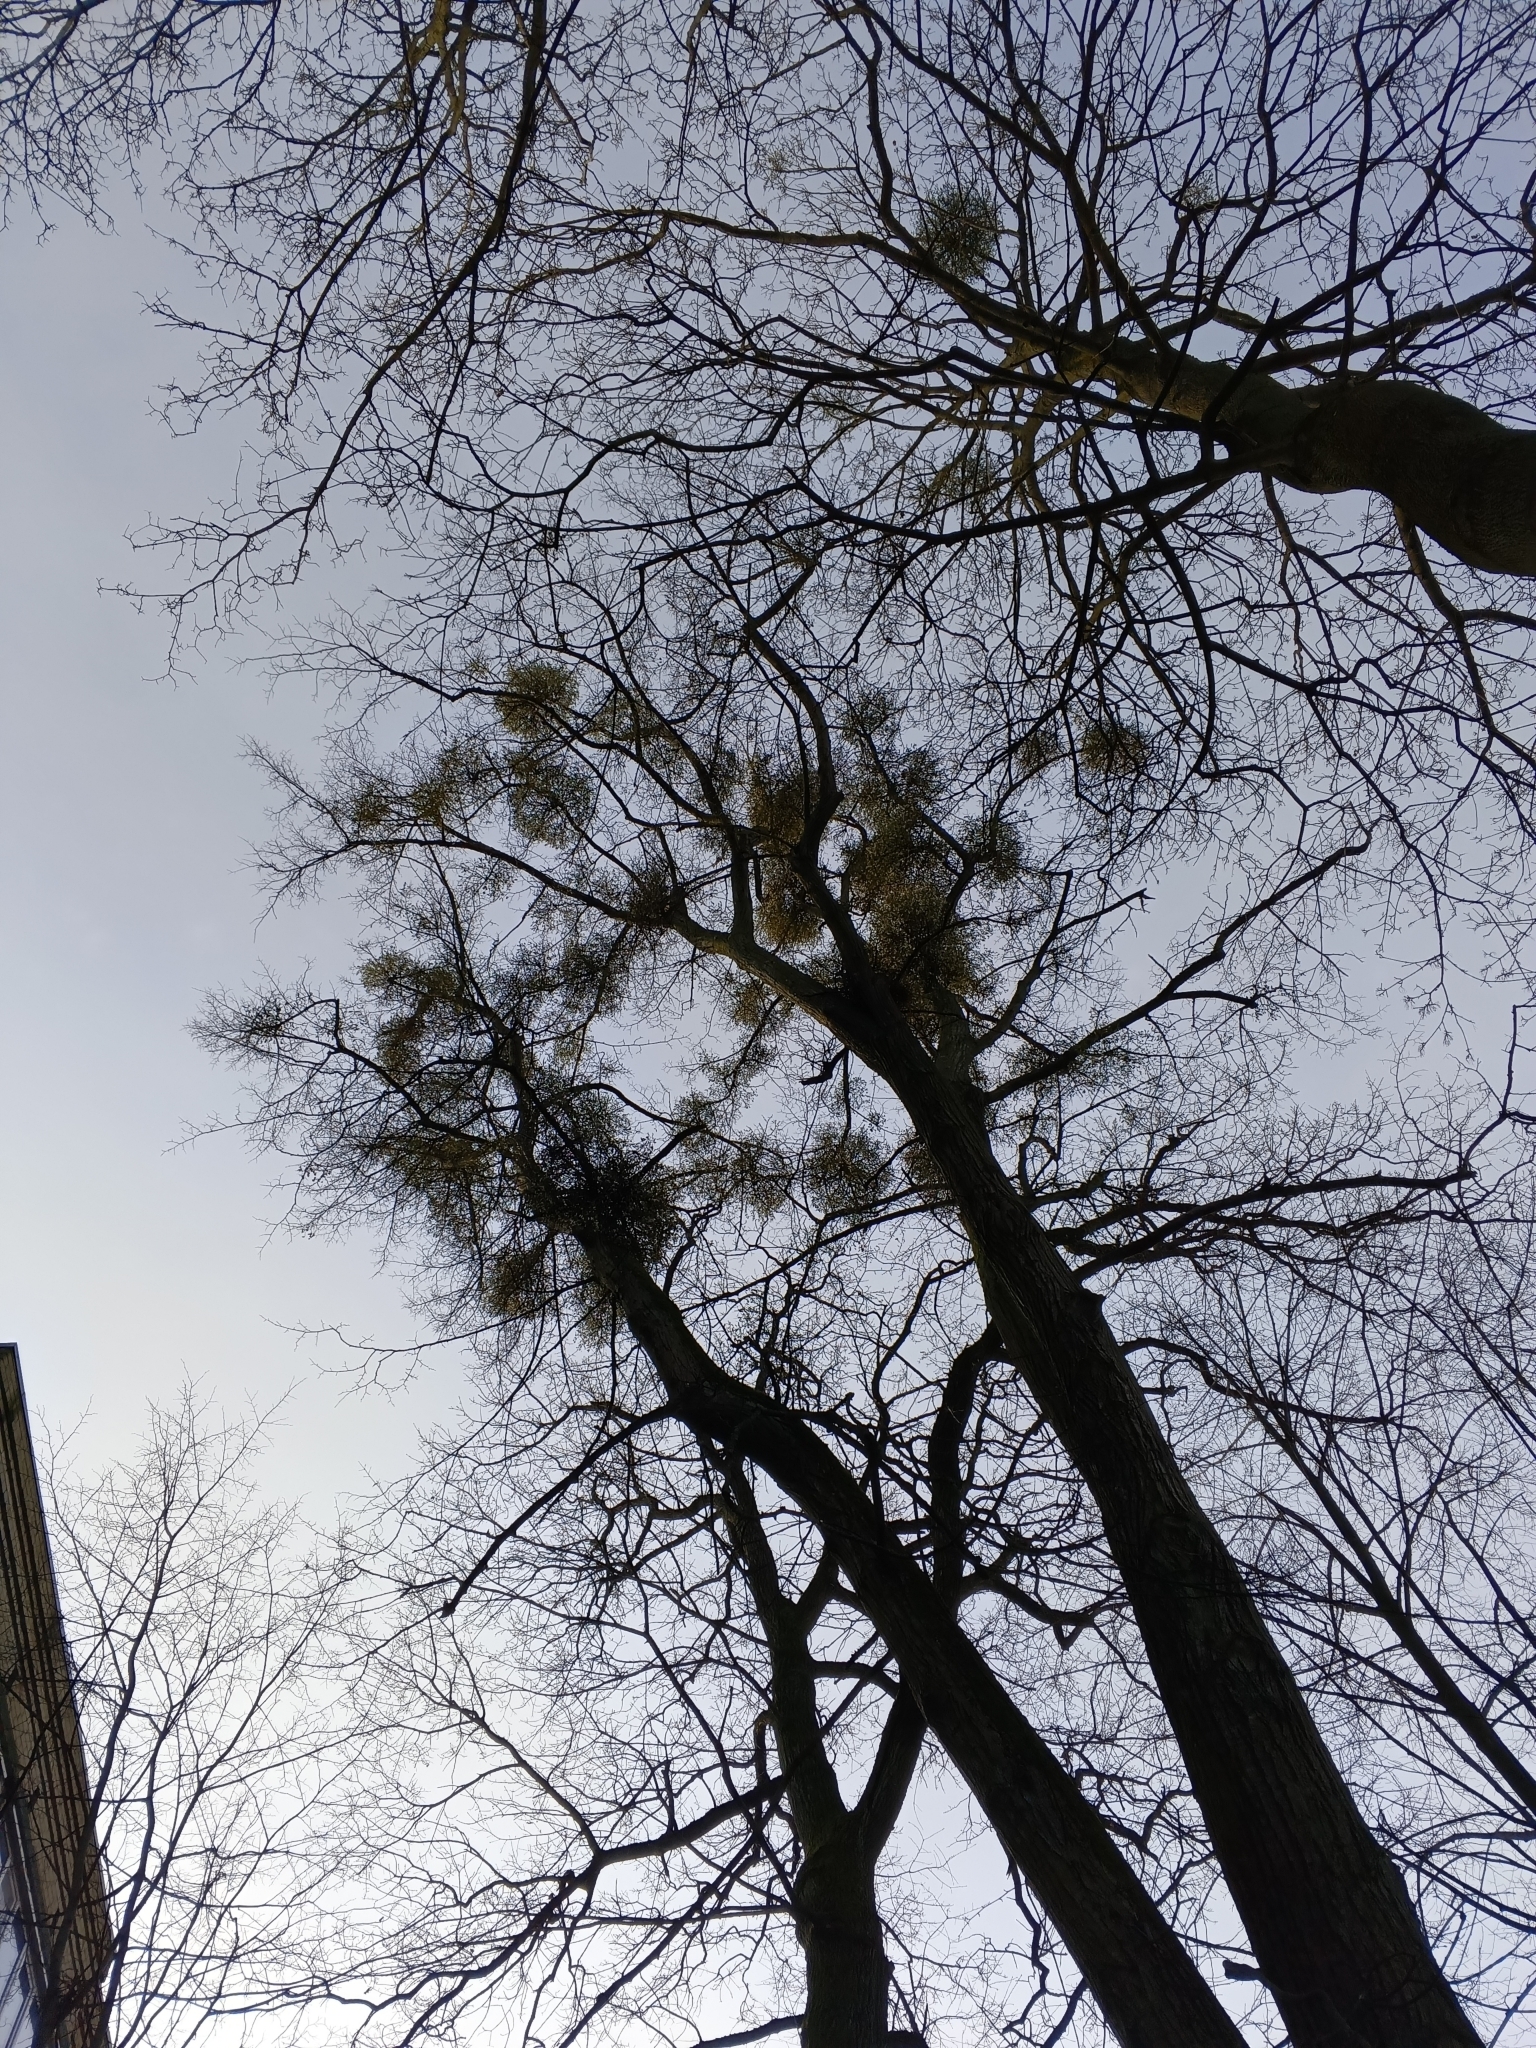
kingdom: Plantae
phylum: Tracheophyta
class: Magnoliopsida
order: Santalales
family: Viscaceae
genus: Viscum
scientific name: Viscum album
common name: Mistletoe
